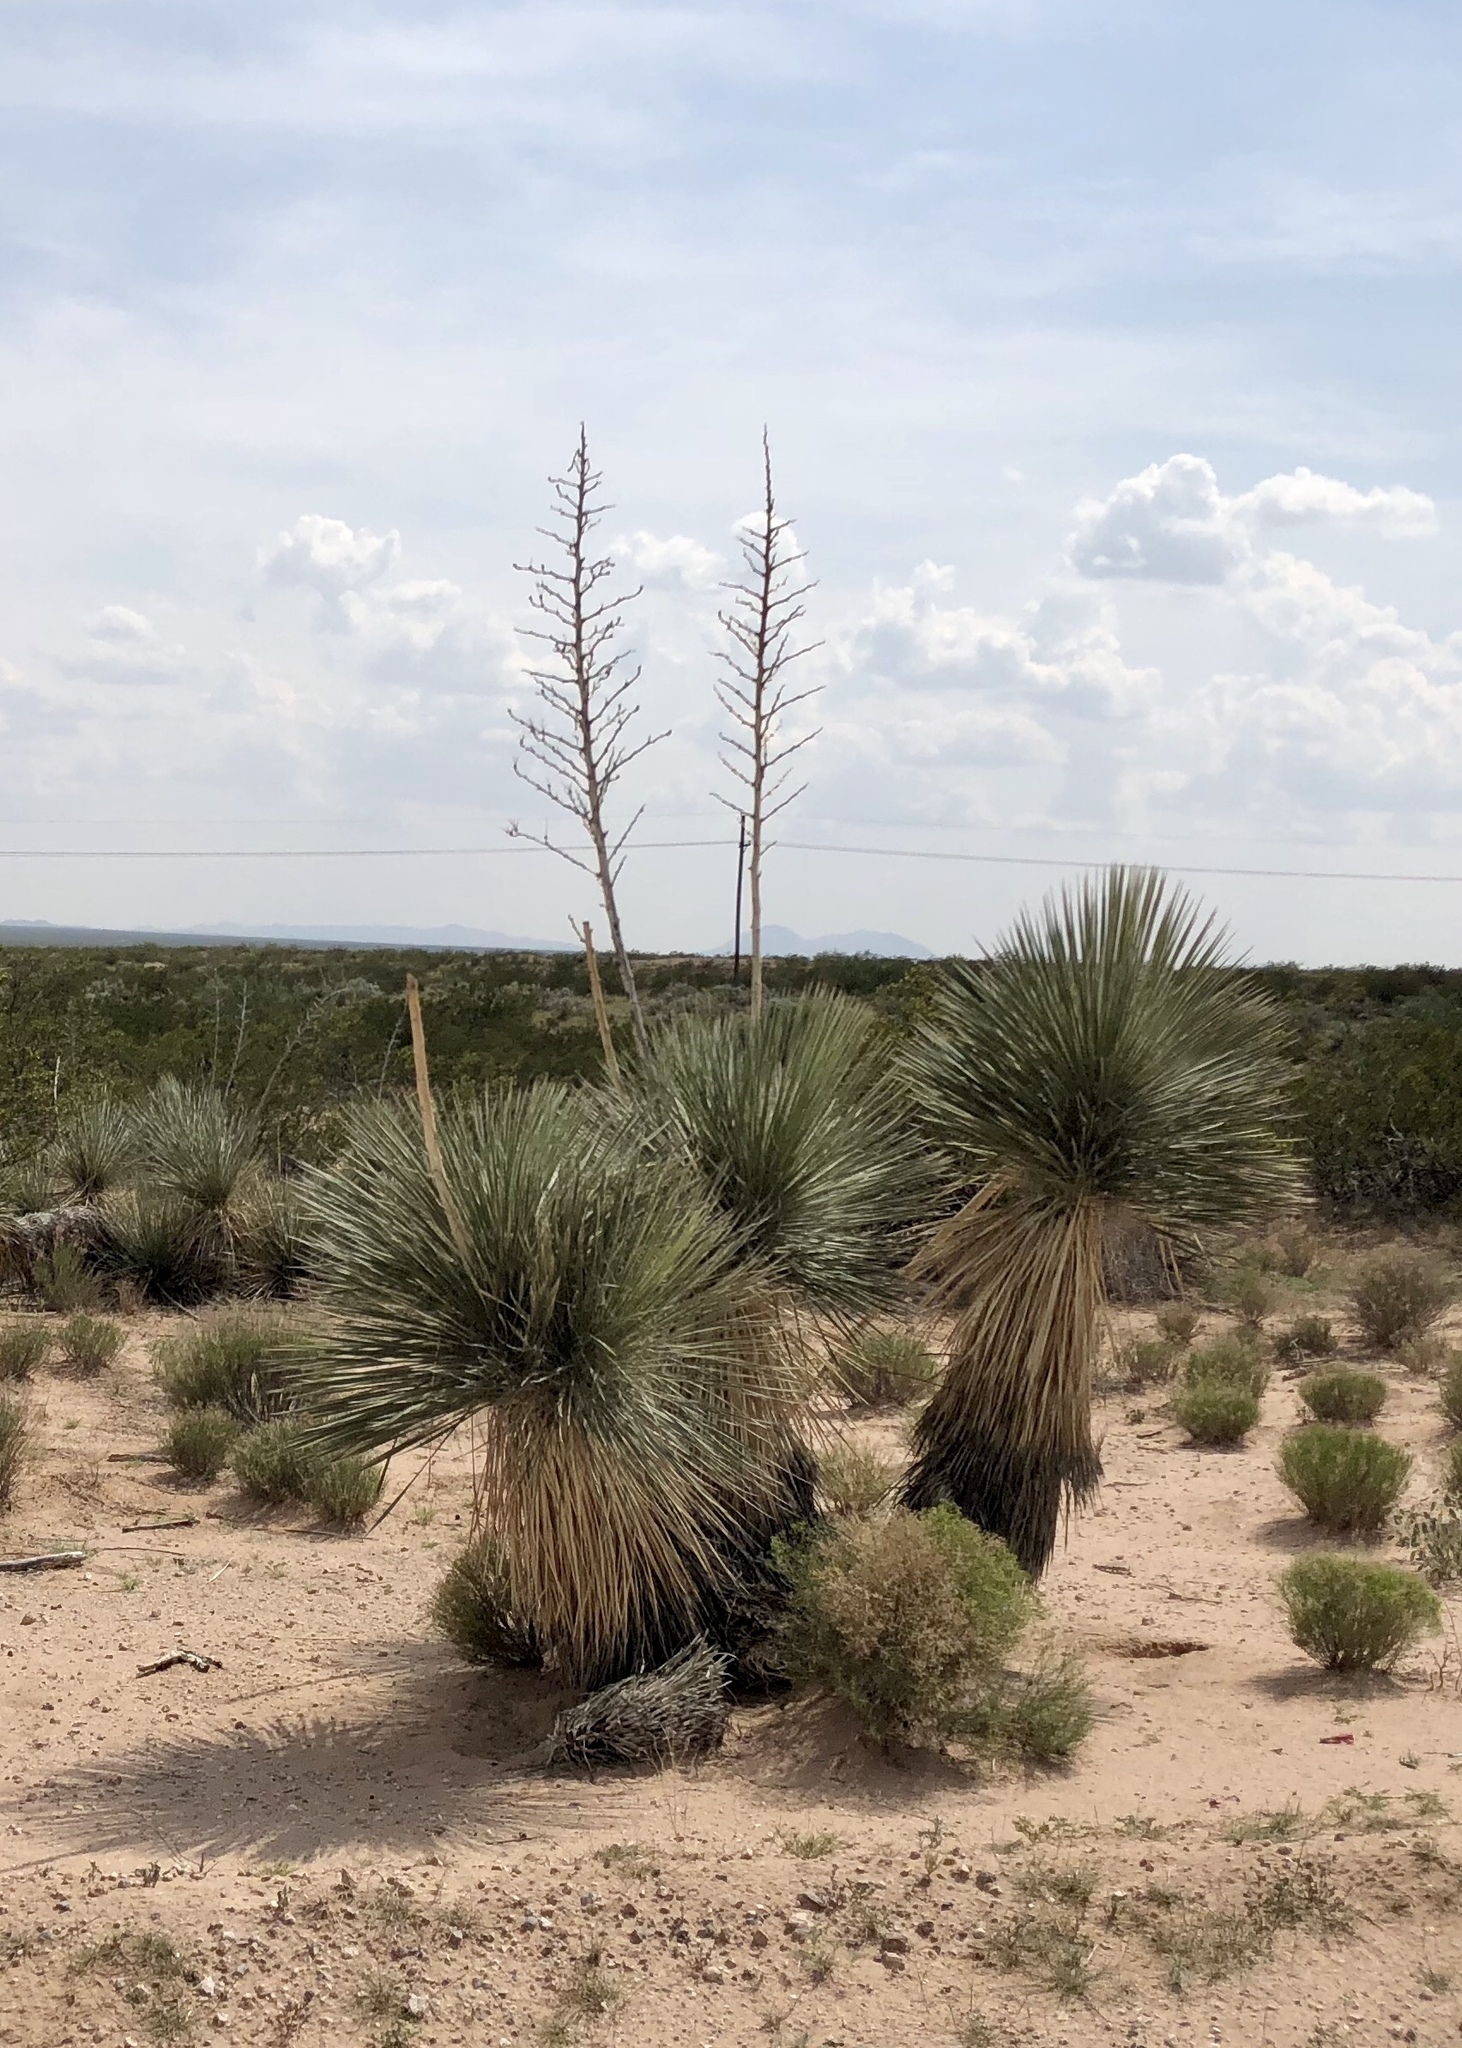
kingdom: Plantae
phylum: Tracheophyta
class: Liliopsida
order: Asparagales
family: Asparagaceae
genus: Yucca
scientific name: Yucca elata
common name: Palmella
